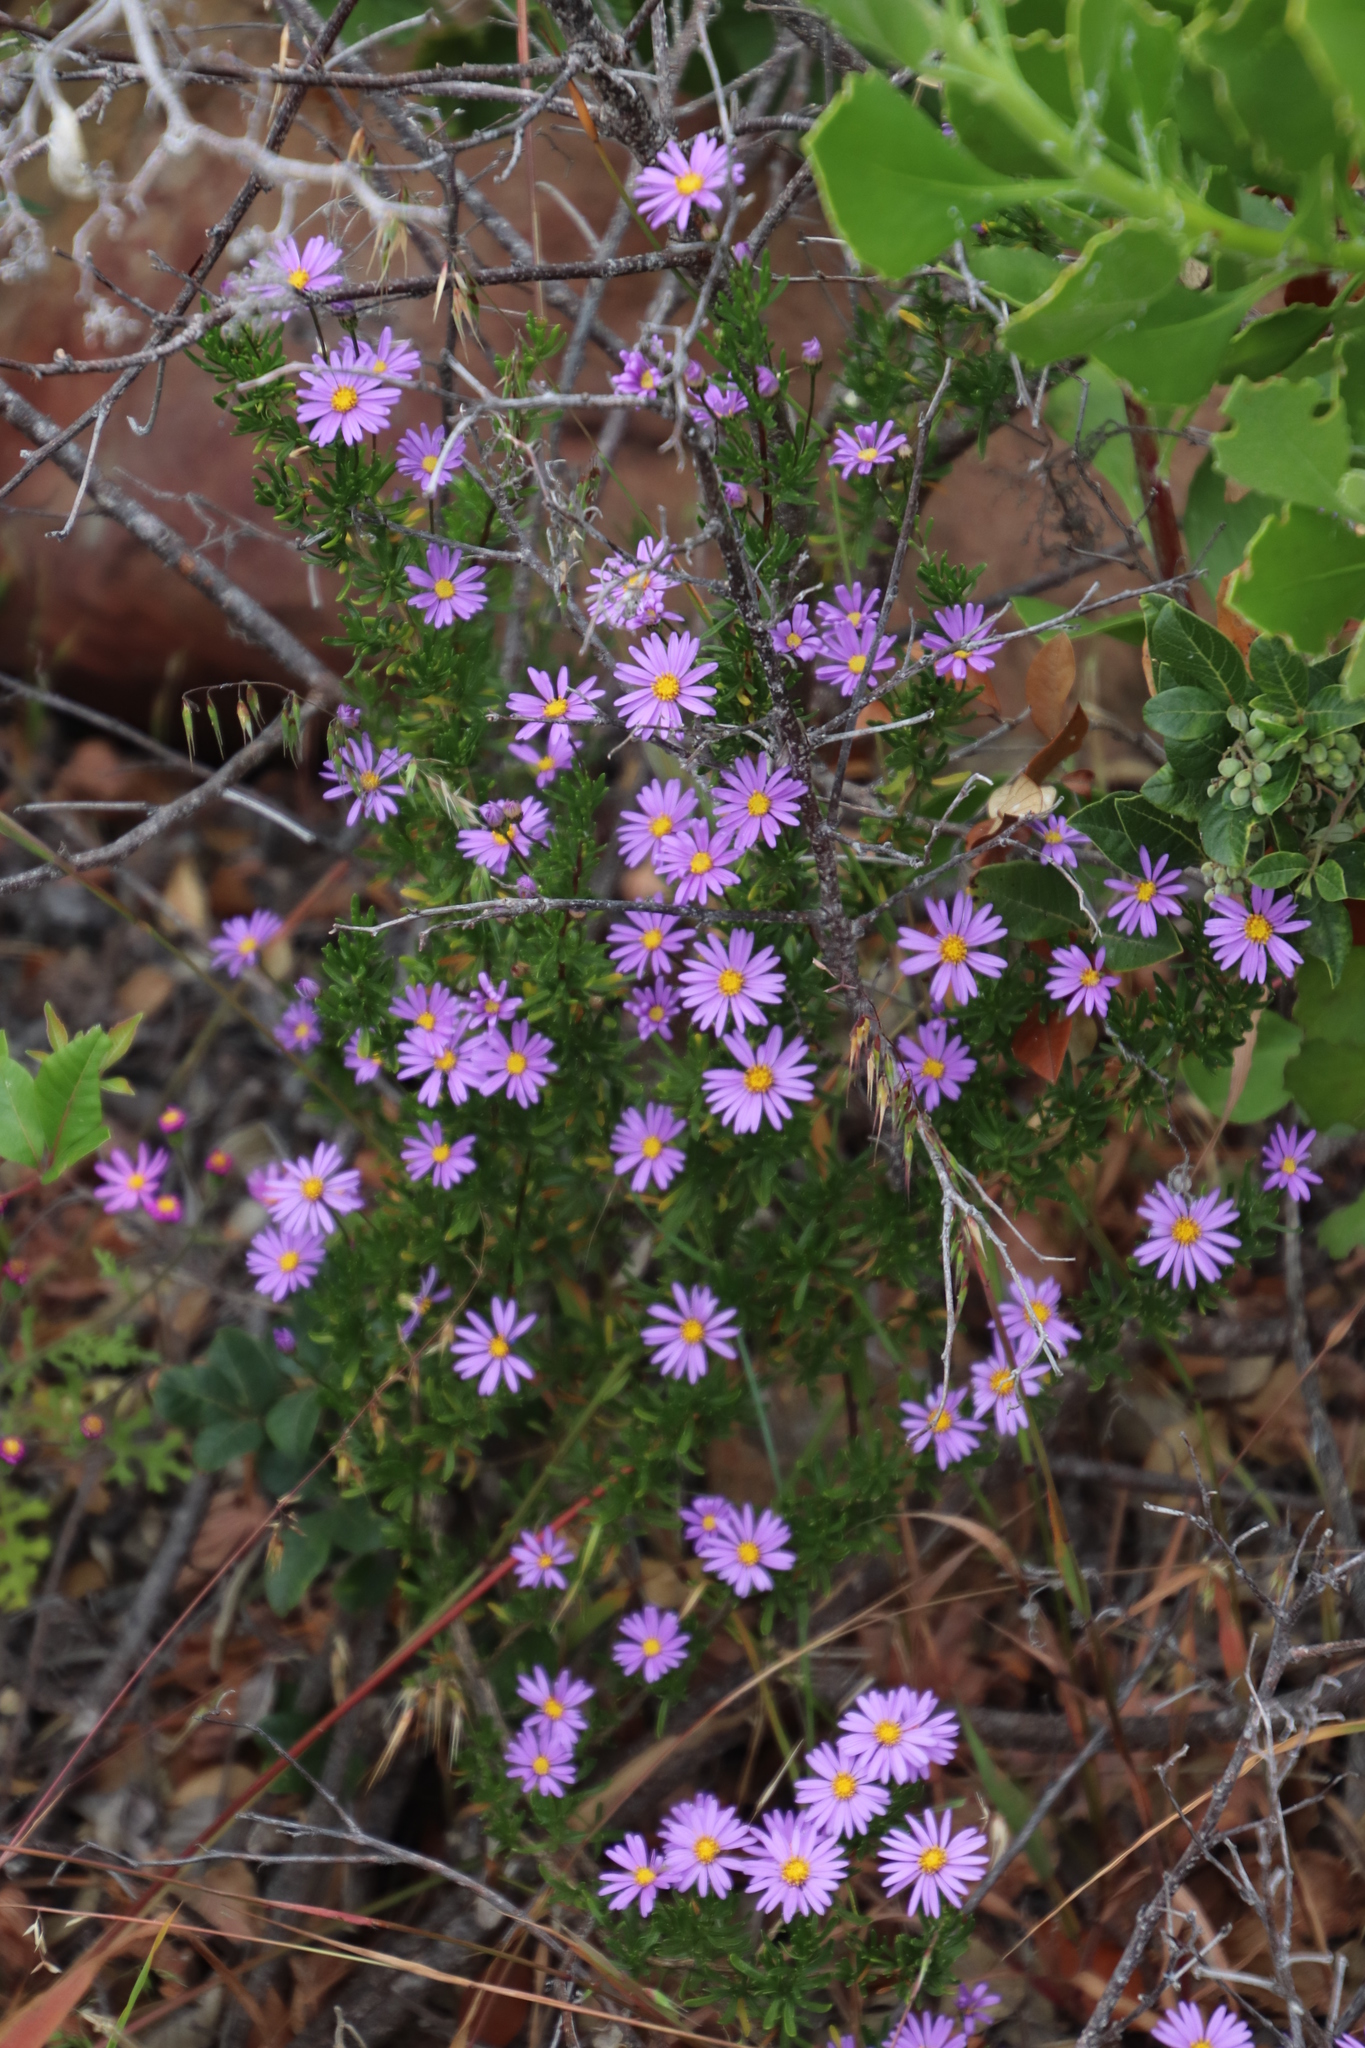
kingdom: Plantae
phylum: Tracheophyta
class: Magnoliopsida
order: Asterales
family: Asteraceae
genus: Felicia
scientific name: Felicia fruticosa
